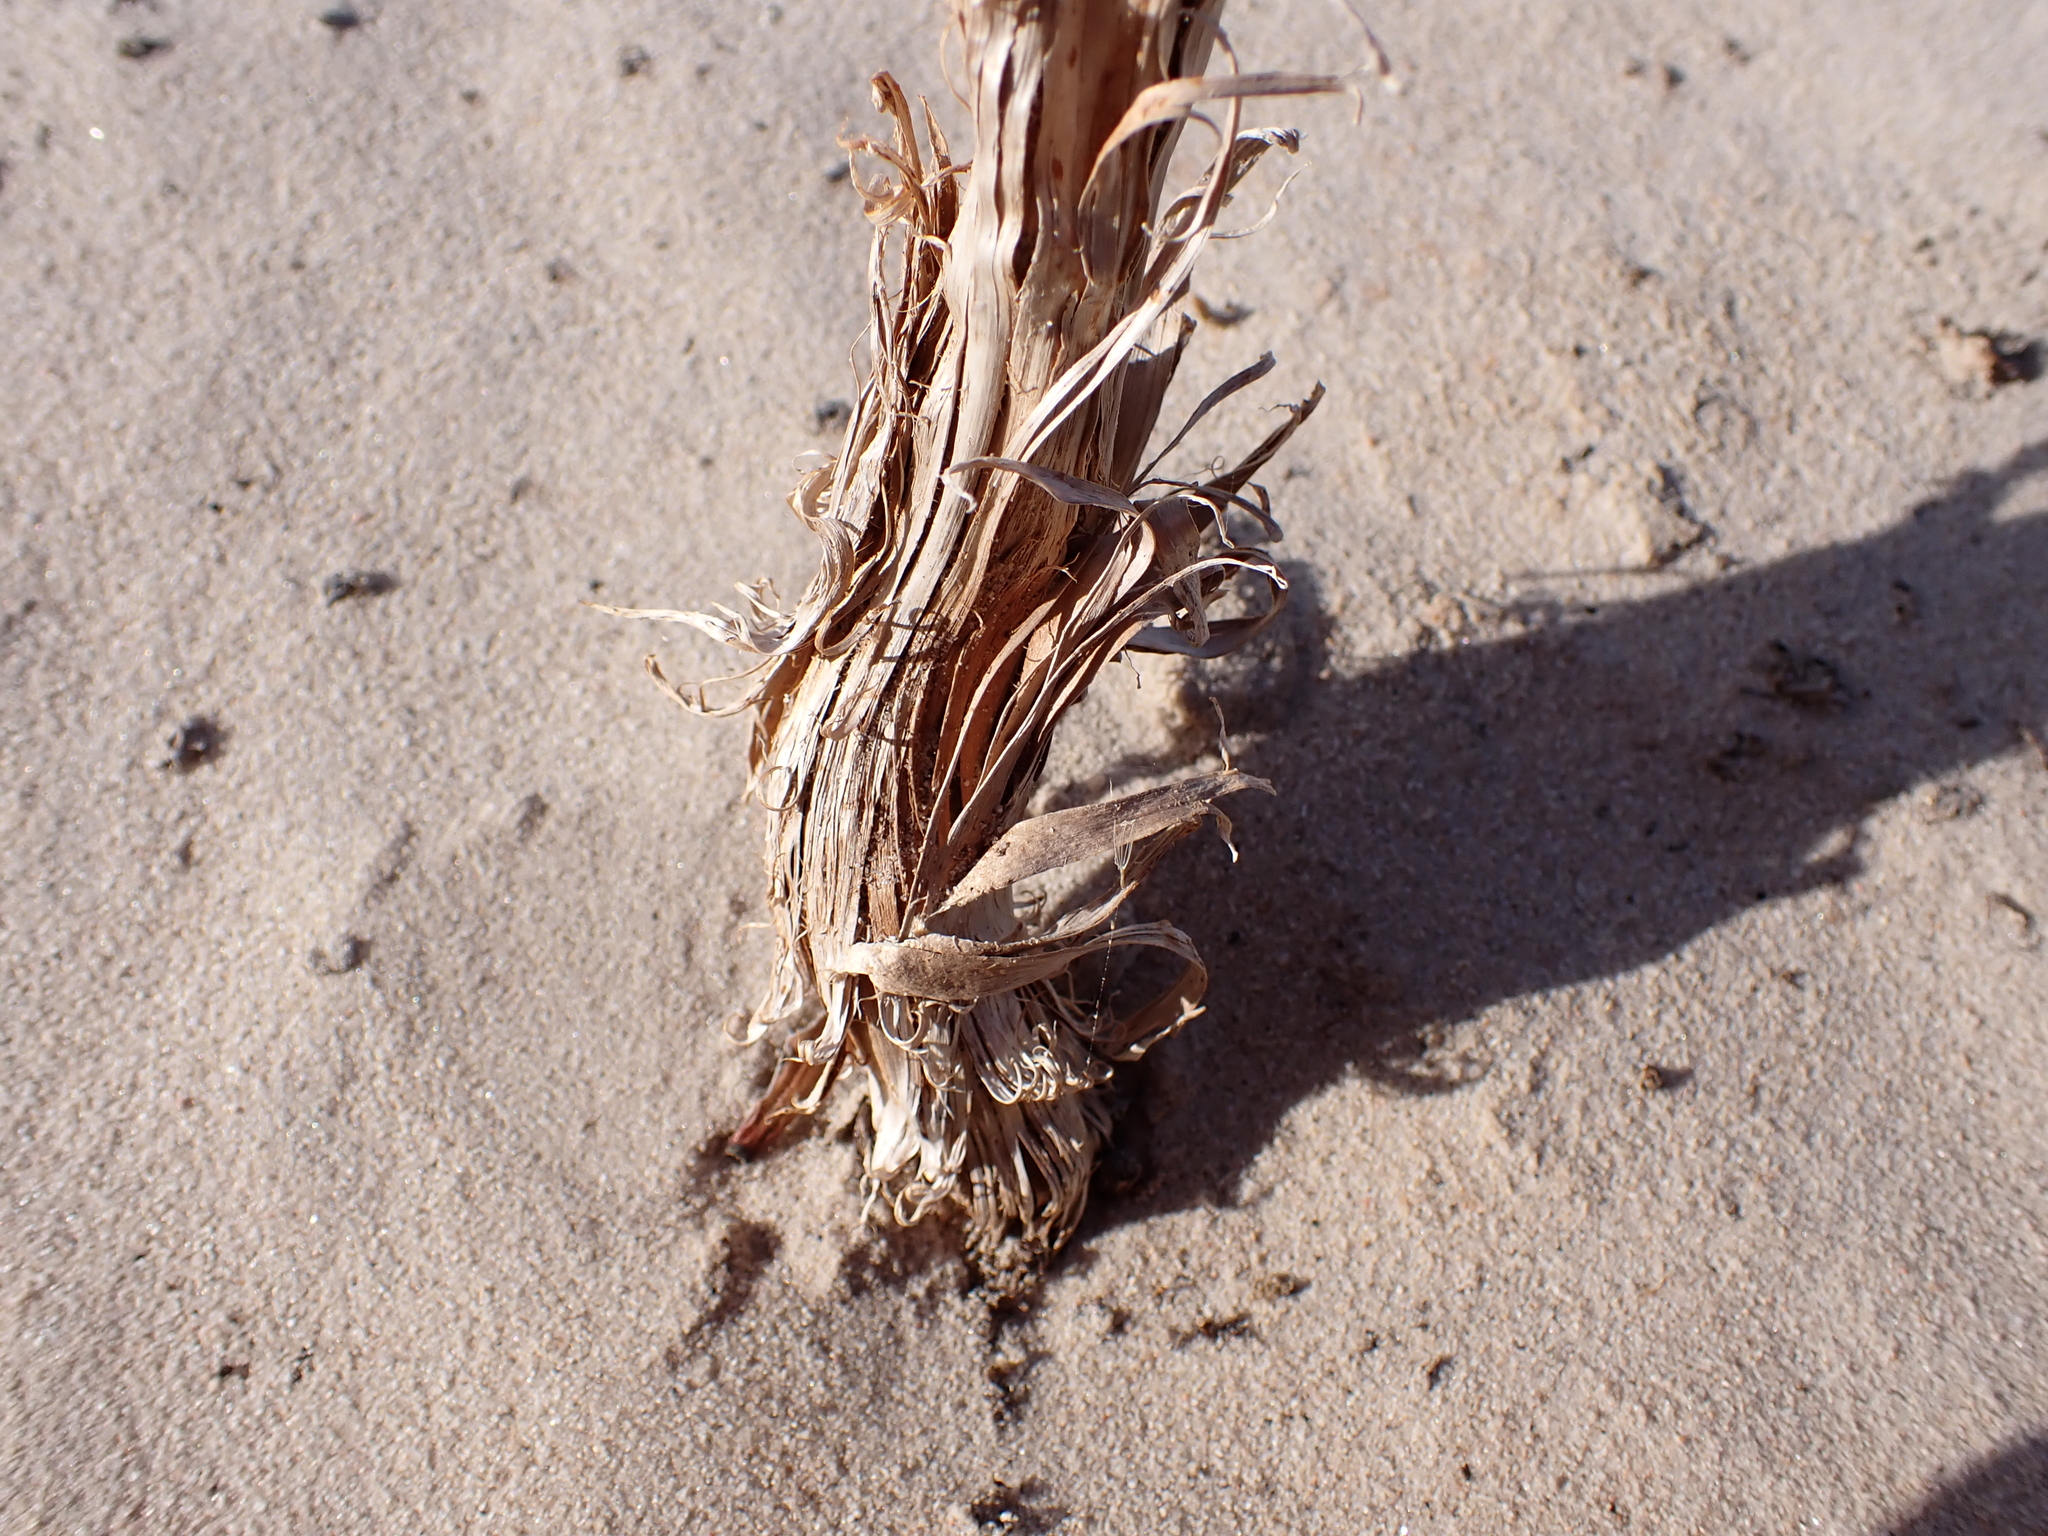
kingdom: Fungi
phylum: Basidiomycota
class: Agaricomycetes
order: Agaricales
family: Agaricaceae
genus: Battarrea
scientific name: Battarrea phalloides
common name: Sandy stiltball
